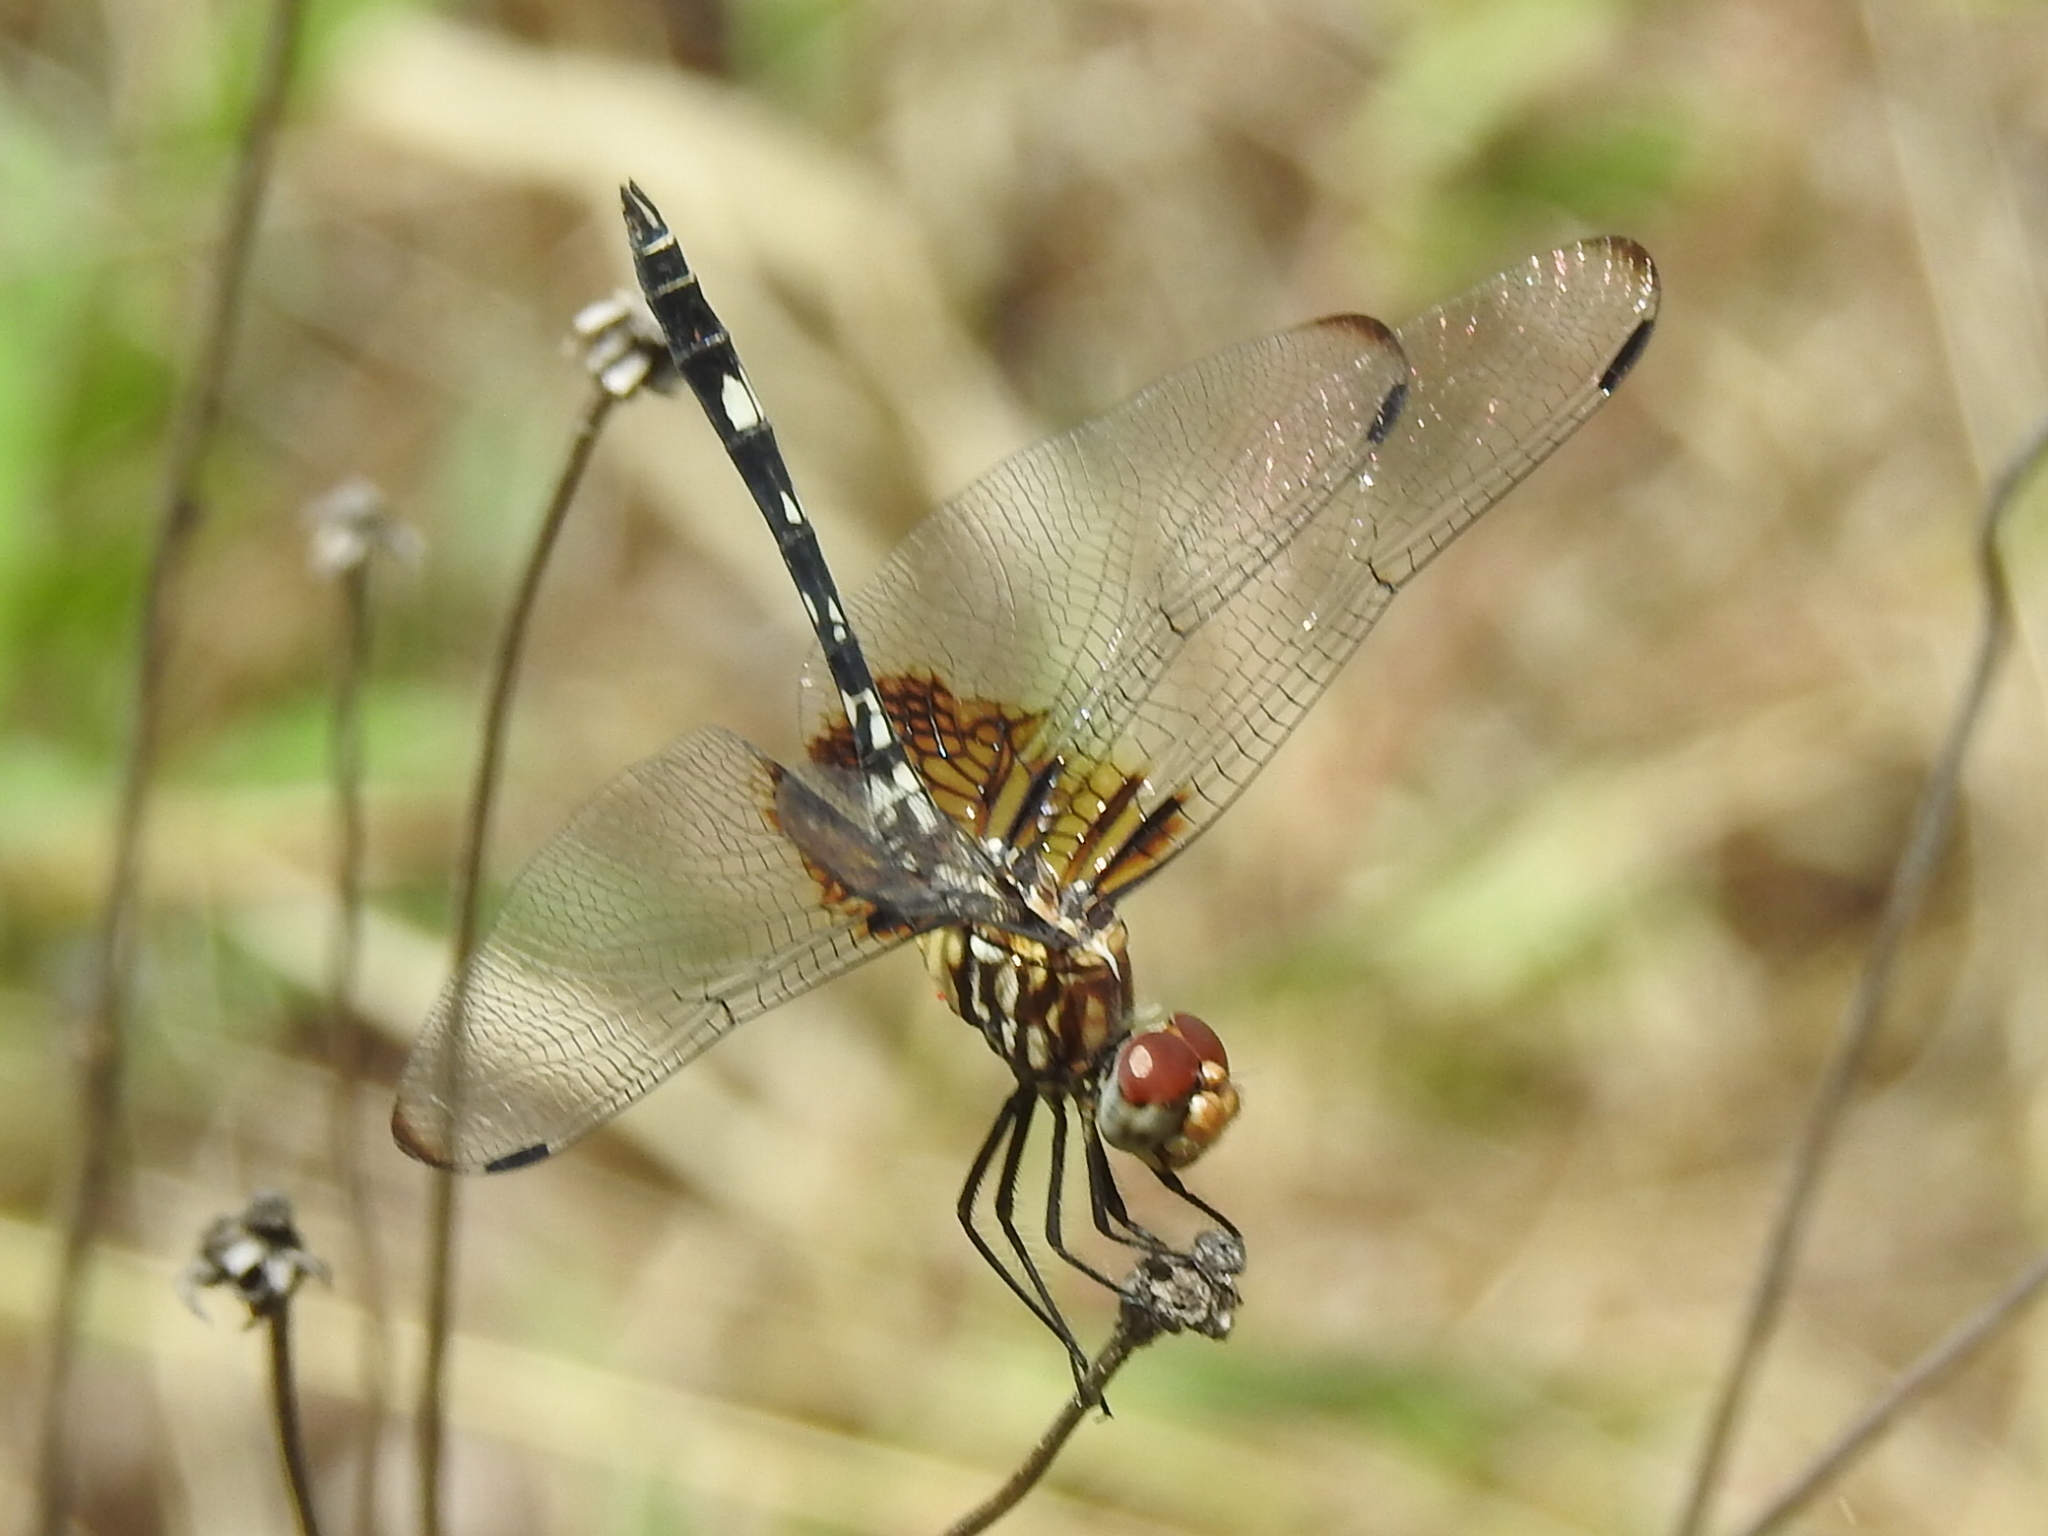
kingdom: Animalia
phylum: Arthropoda
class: Insecta
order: Odonata
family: Libellulidae
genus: Dythemis
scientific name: Dythemis fugax
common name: Checkered setwing
